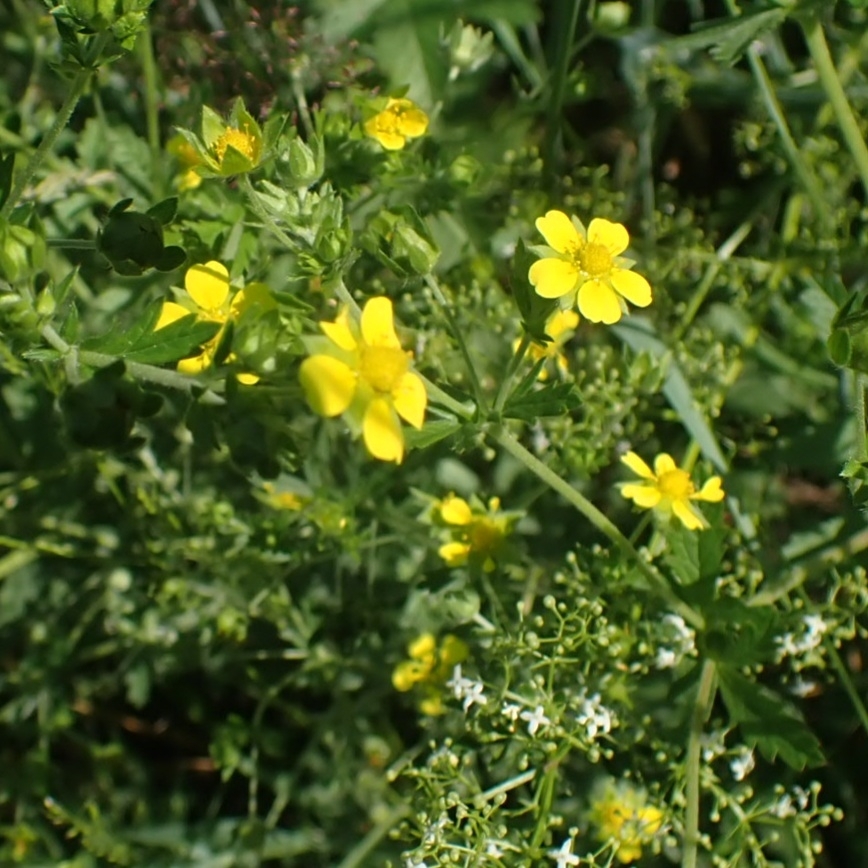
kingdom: Plantae
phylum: Tracheophyta
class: Magnoliopsida
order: Rosales
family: Rosaceae
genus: Potentilla
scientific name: Potentilla argentea
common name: Hoary cinquefoil
